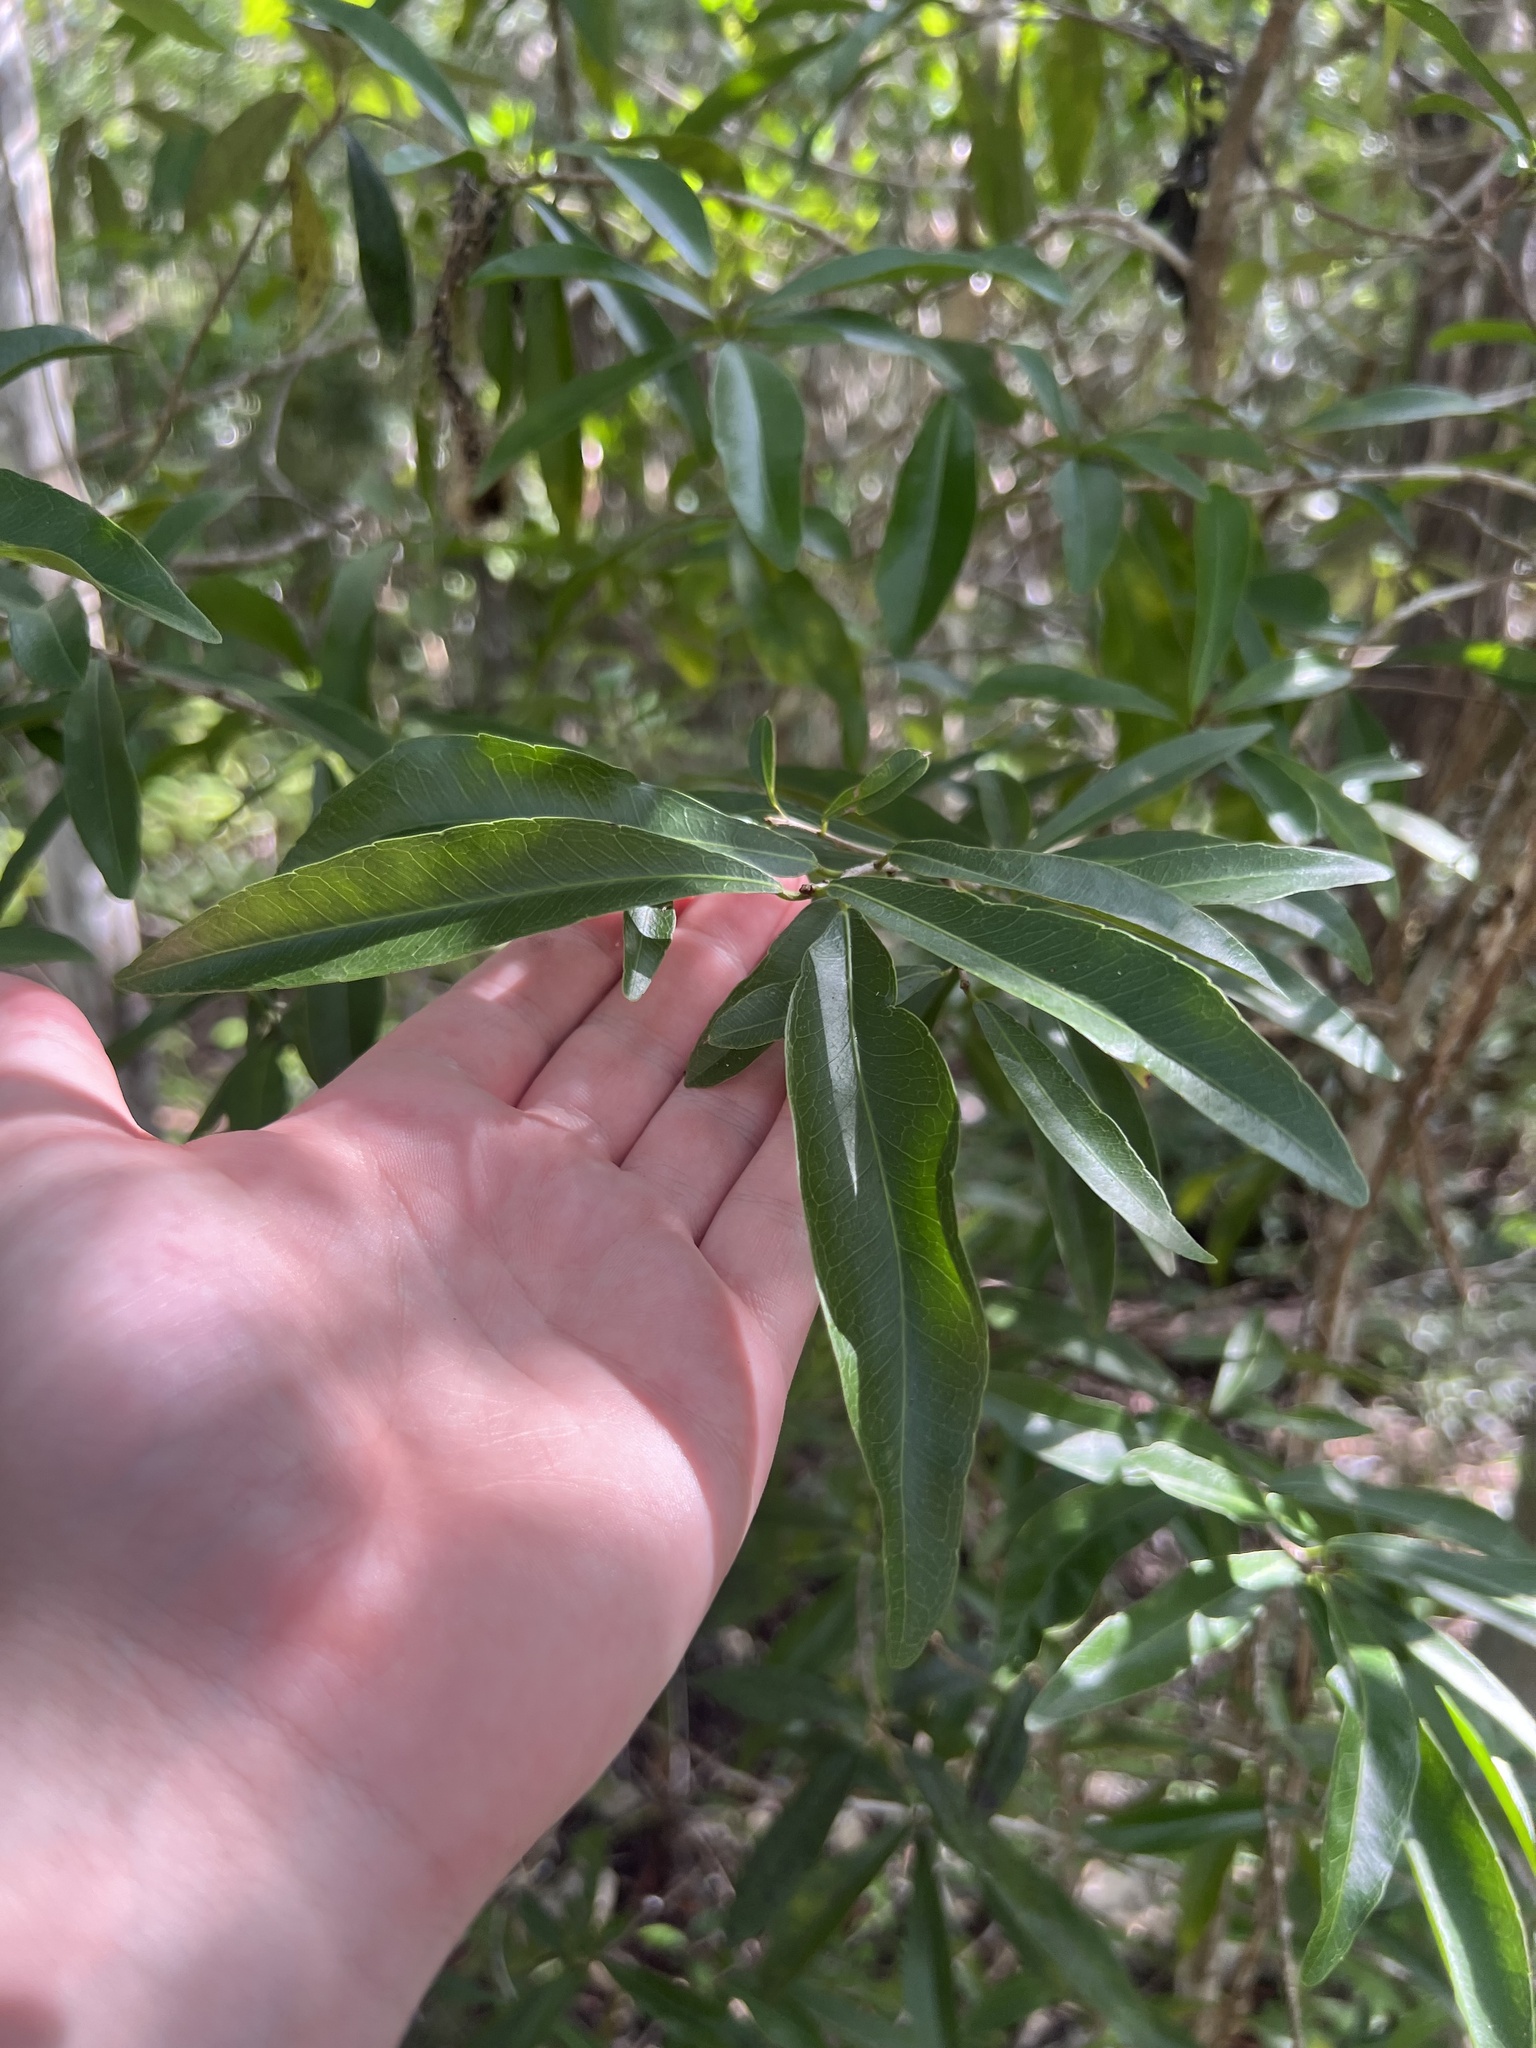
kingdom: Plantae
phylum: Tracheophyta
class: Magnoliopsida
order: Malpighiales
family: Euphorbiaceae
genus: Gymnanthes
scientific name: Gymnanthes lucida
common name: Oysterwood
